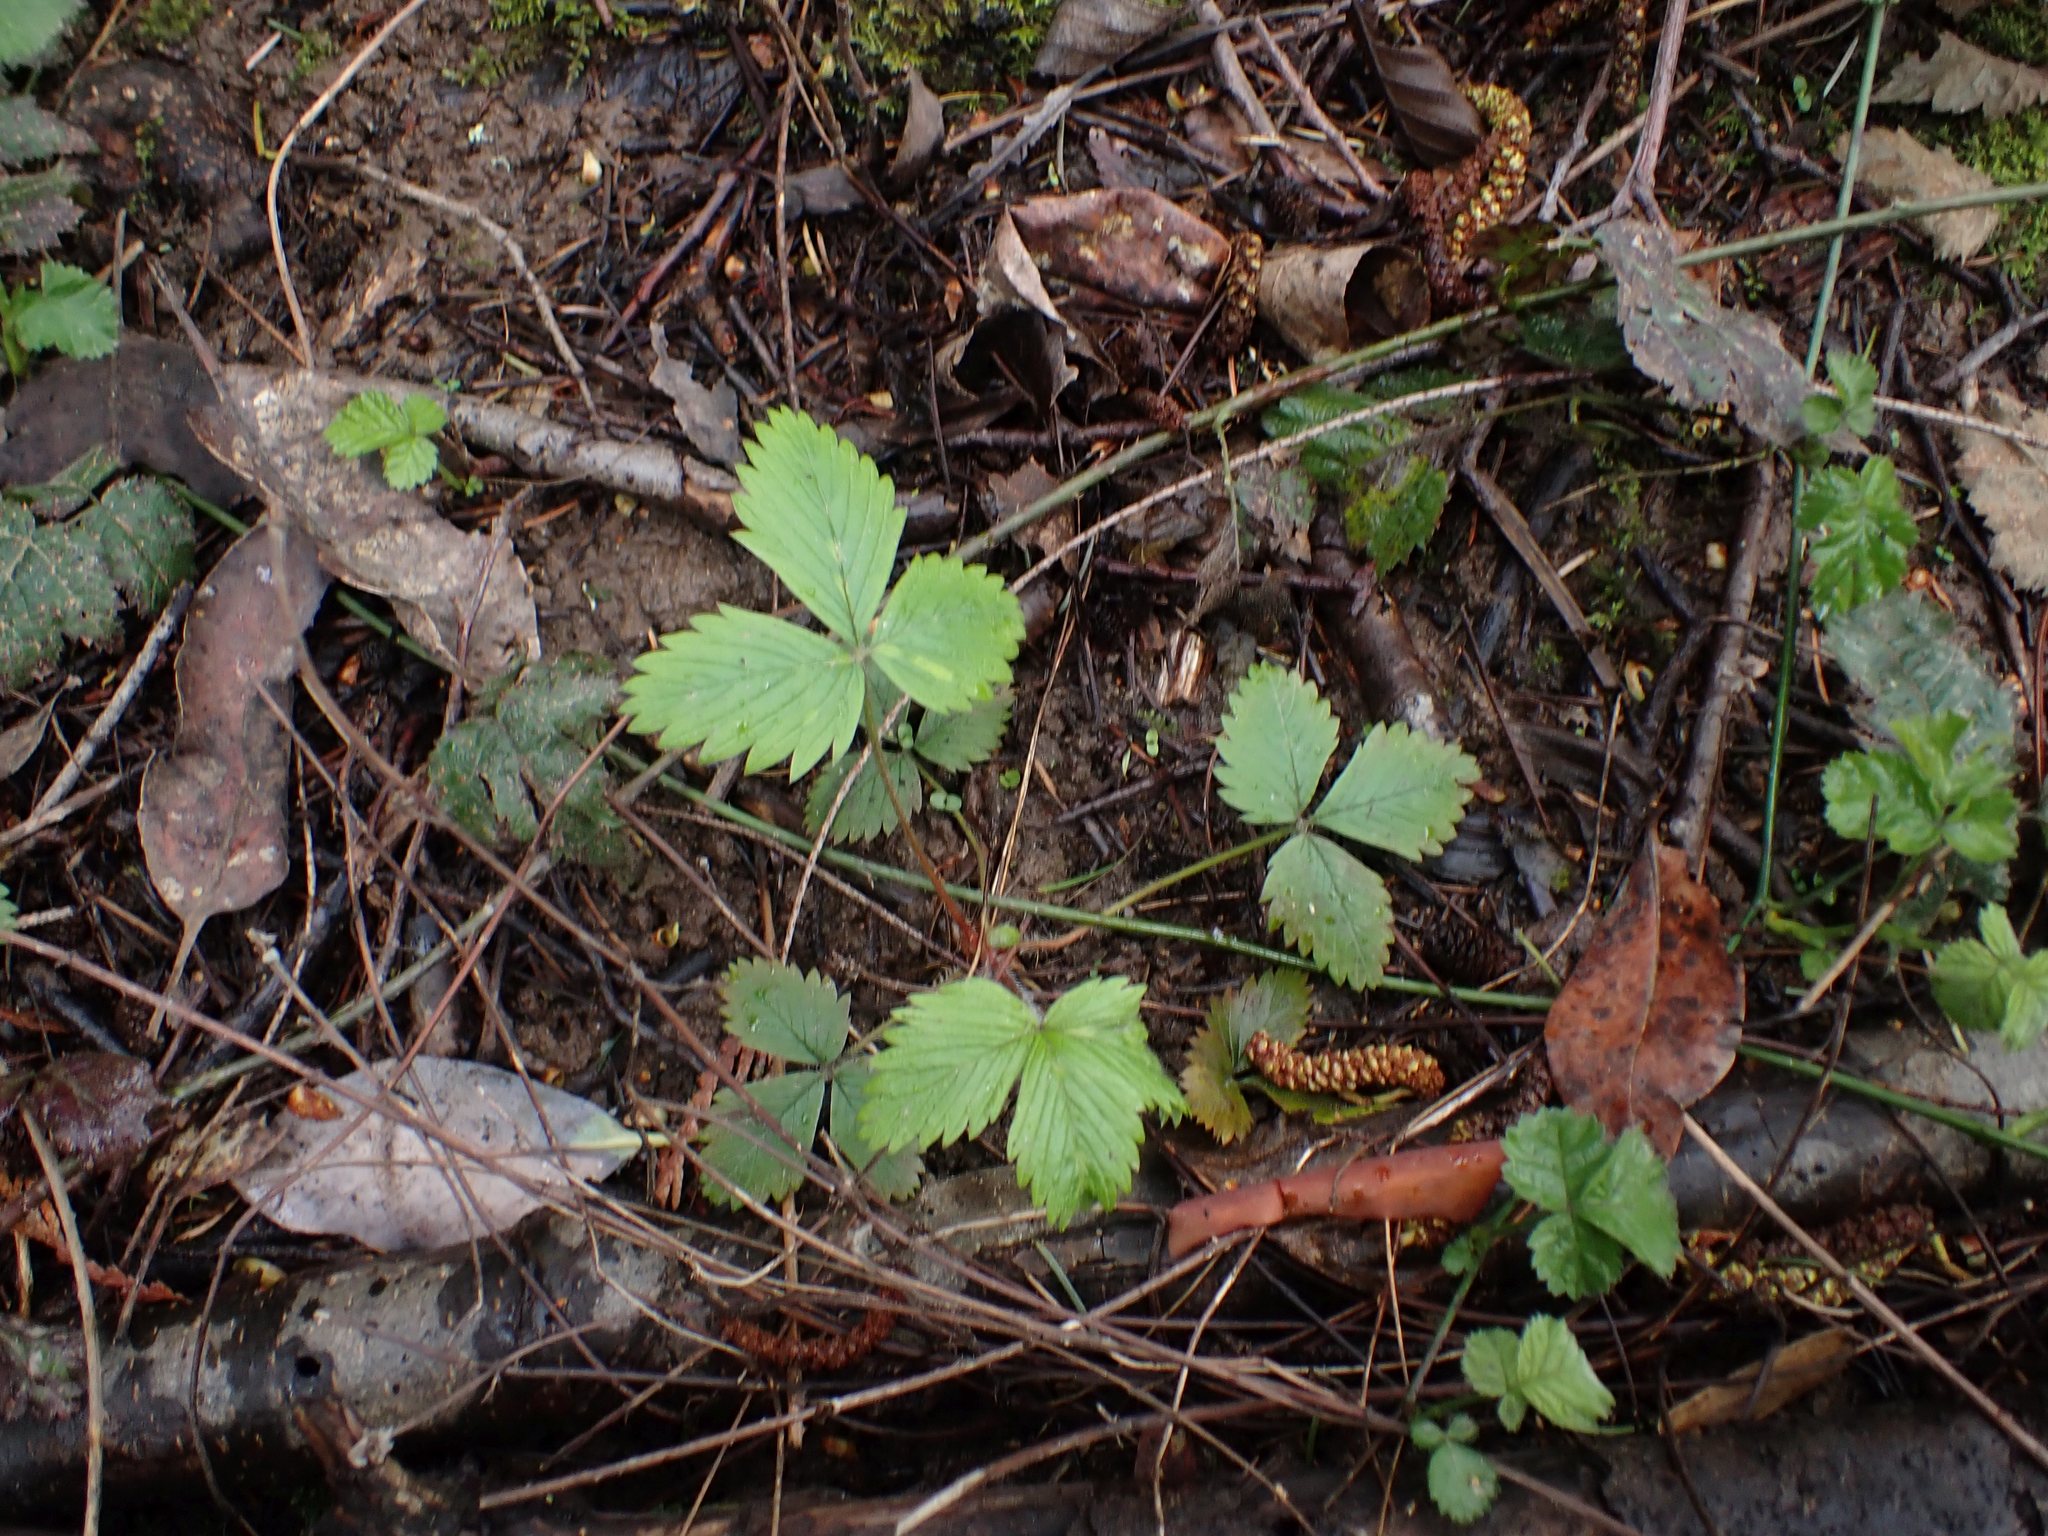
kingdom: Plantae
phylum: Tracheophyta
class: Magnoliopsida
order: Rosales
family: Rosaceae
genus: Fragaria
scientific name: Fragaria vesca
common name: Wild strawberry
